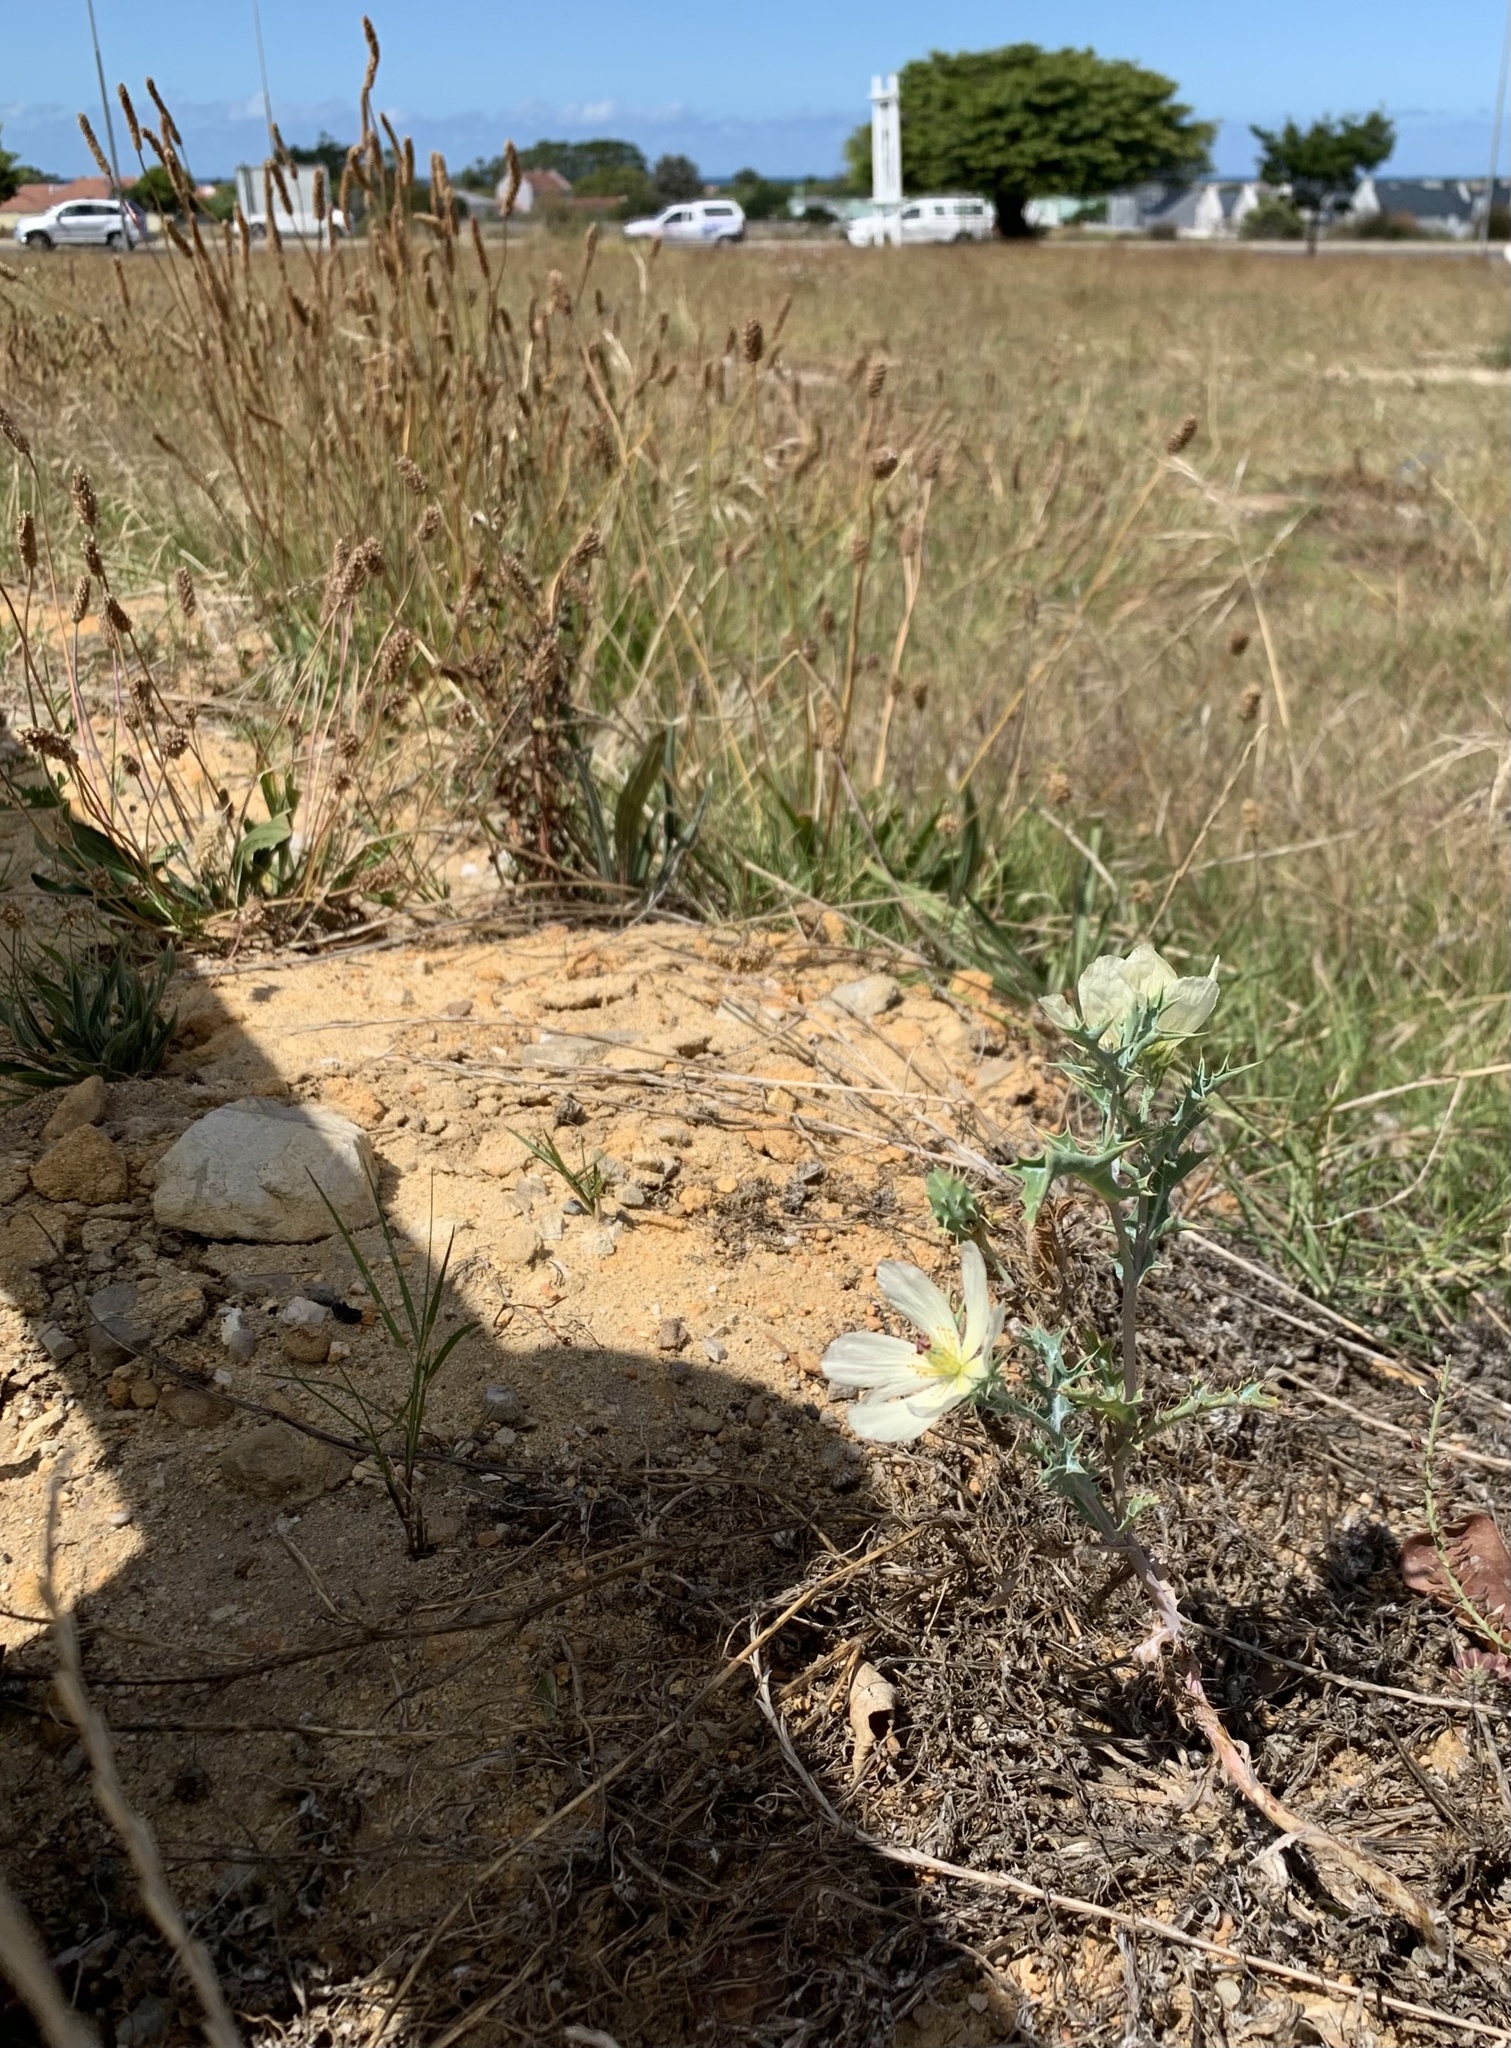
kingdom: Plantae
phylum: Tracheophyta
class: Magnoliopsida
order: Ranunculales
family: Papaveraceae
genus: Argemone
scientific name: Argemone ochroleuca
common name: White-flower mexican-poppy
